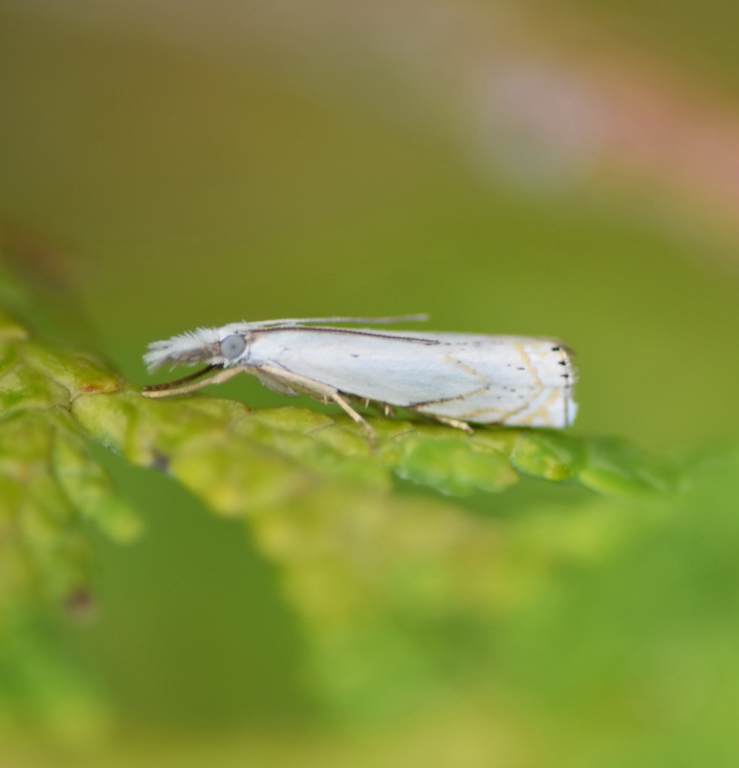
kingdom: Animalia
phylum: Arthropoda
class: Insecta
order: Lepidoptera
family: Crambidae
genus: Crambus
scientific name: Crambus albellus
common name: Small white grass-veneer
